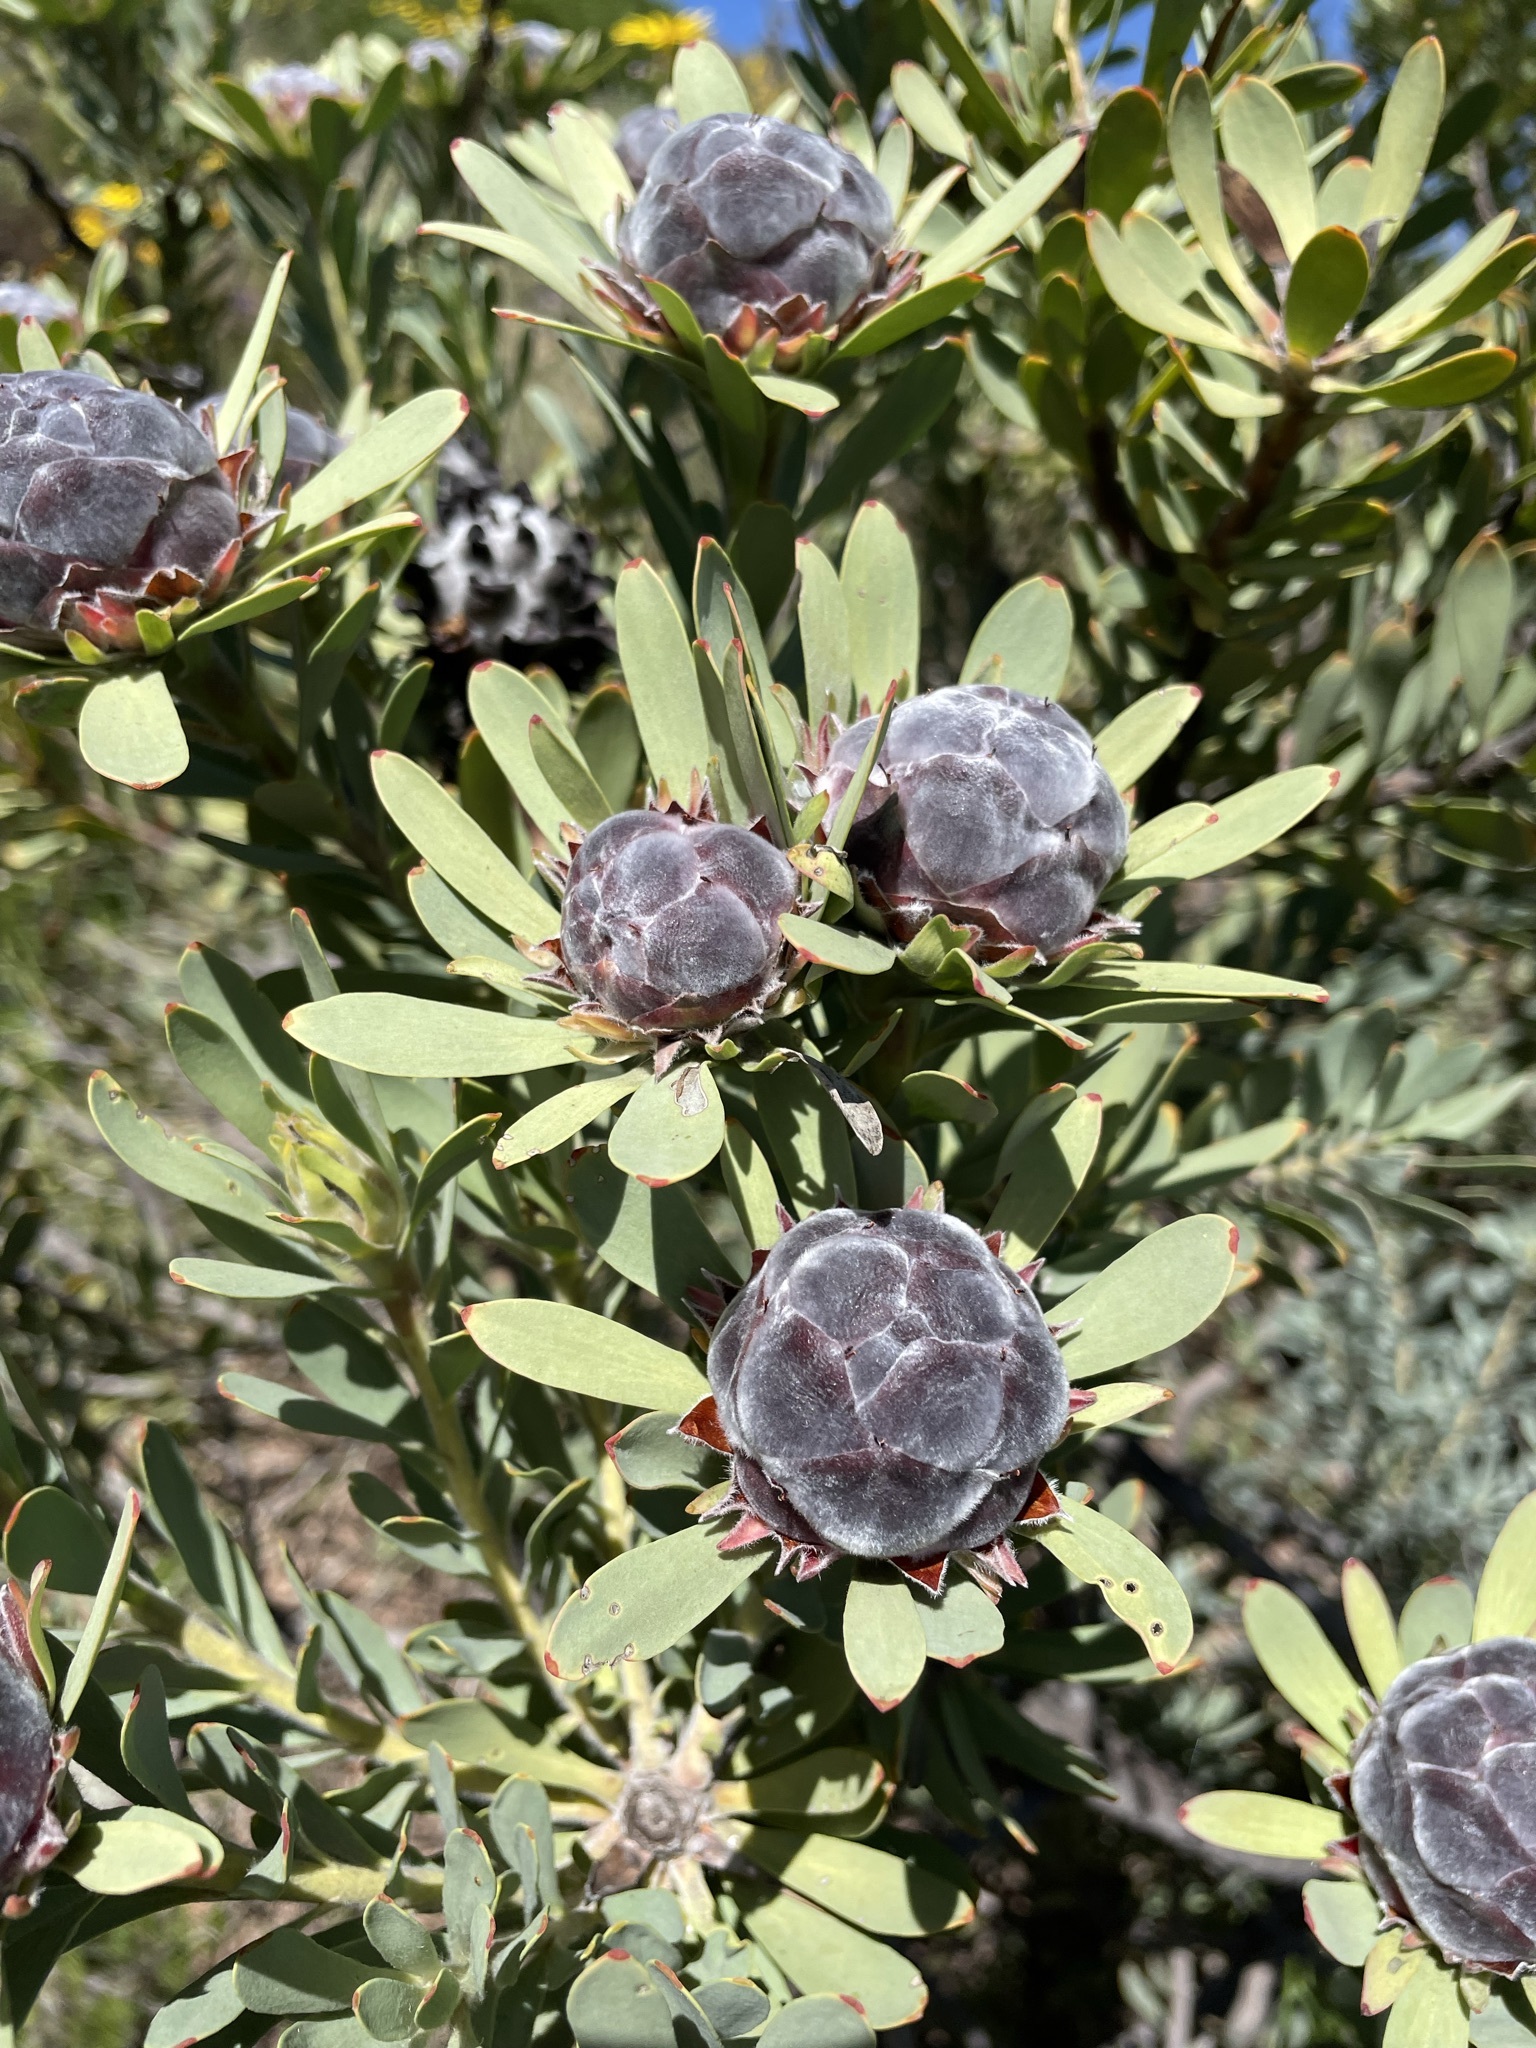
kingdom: Plantae
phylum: Tracheophyta
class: Magnoliopsida
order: Proteales
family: Proteaceae
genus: Leucadendron
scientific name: Leucadendron pubescens
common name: Grey conebush
